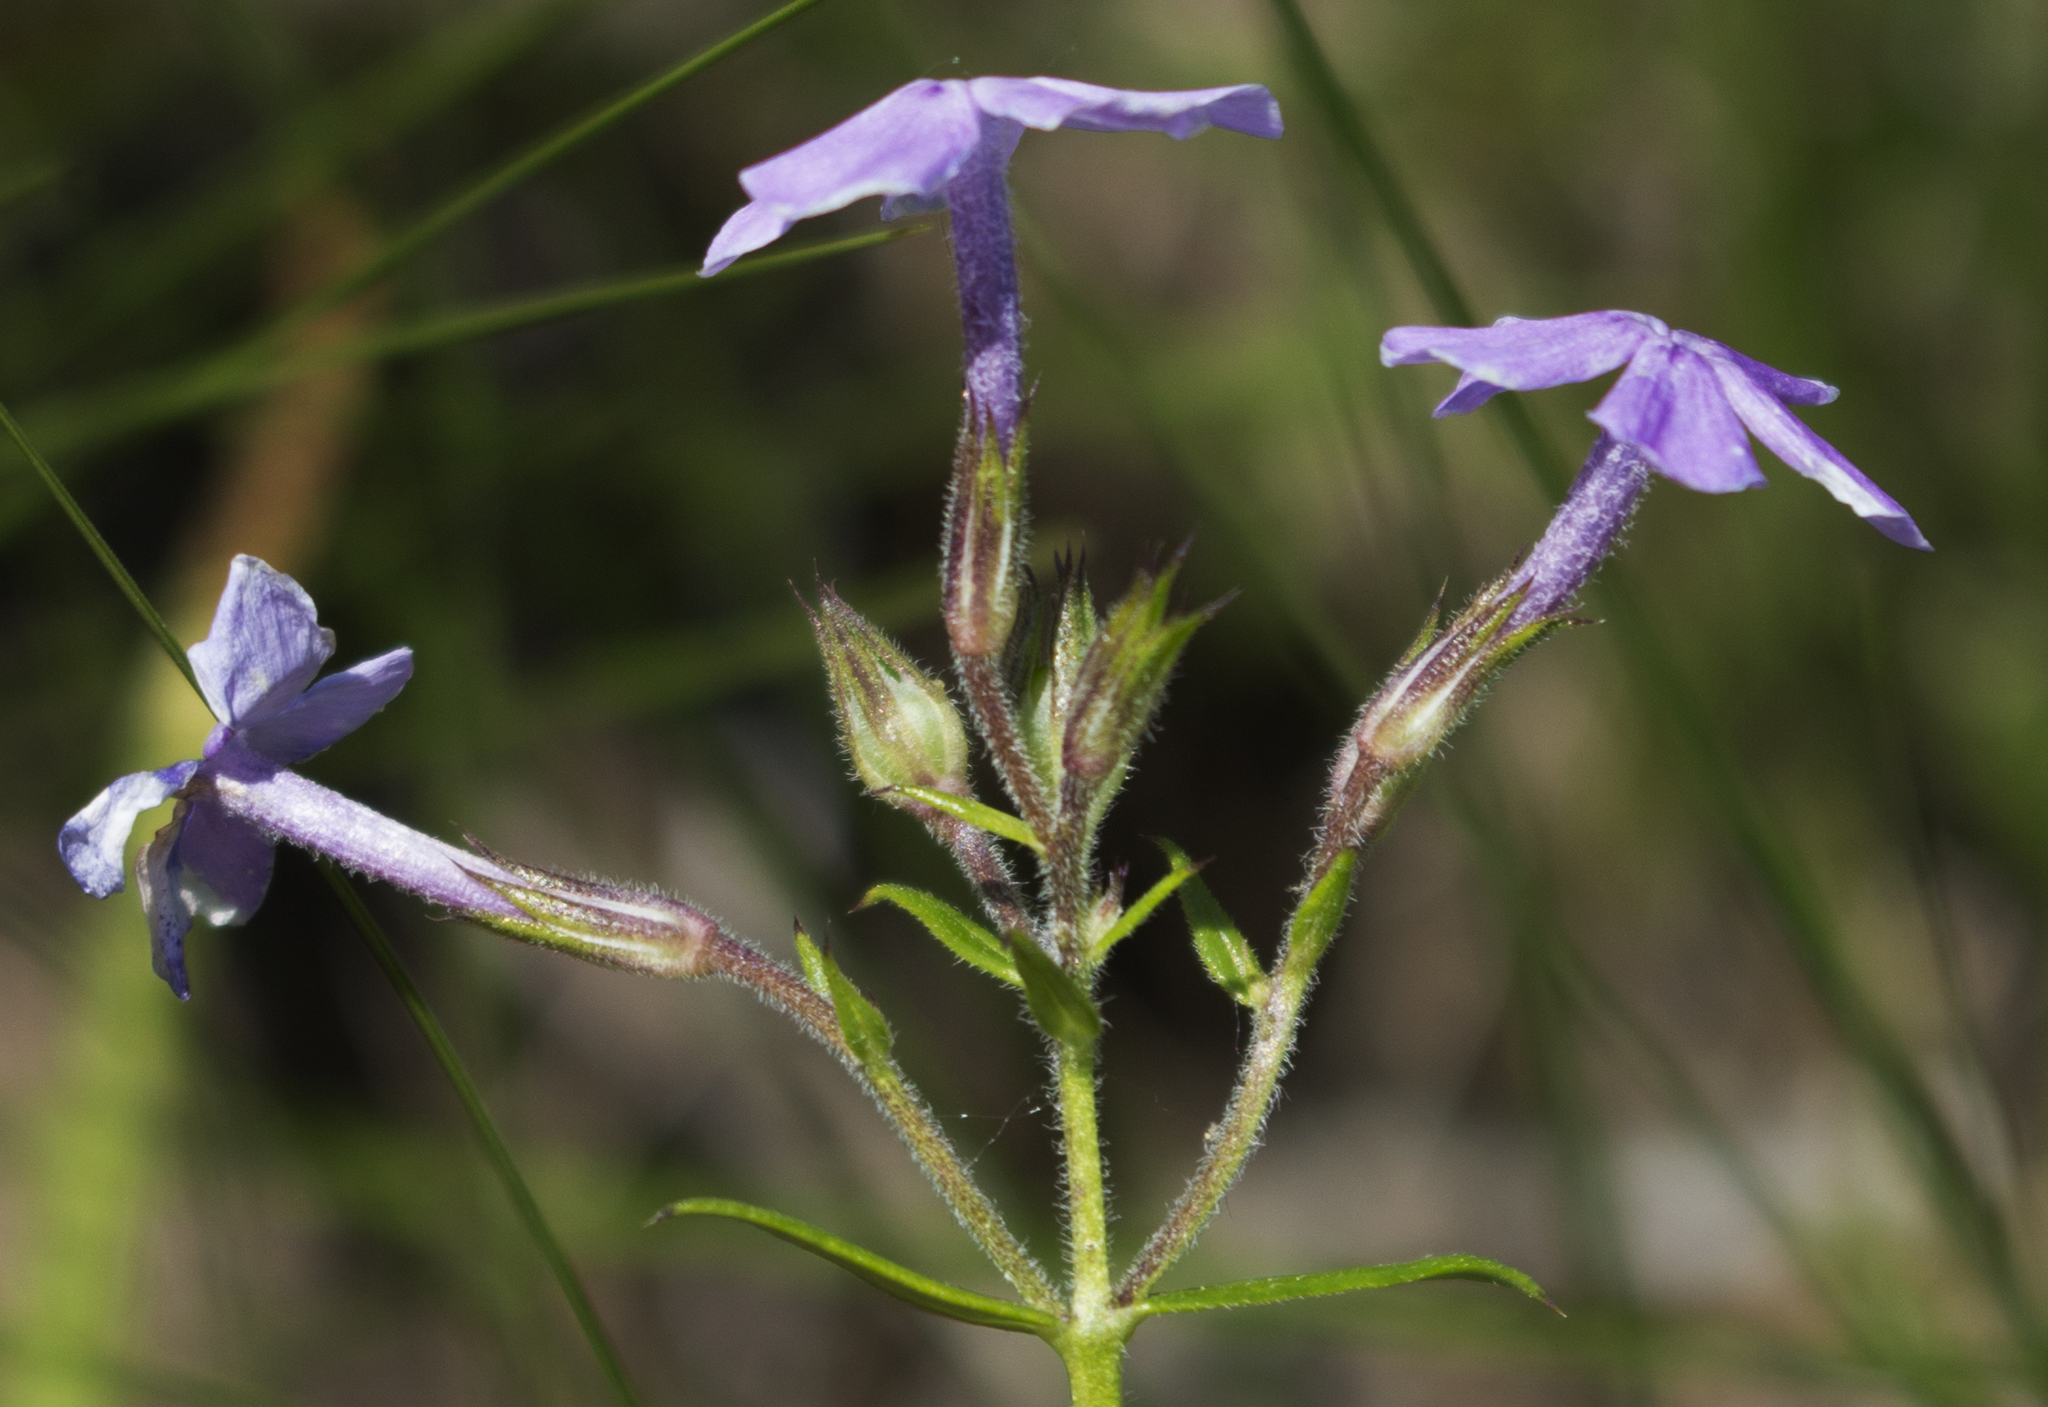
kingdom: Plantae
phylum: Tracheophyta
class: Magnoliopsida
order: Ericales
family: Polemoniaceae
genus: Phlox
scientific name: Phlox pilosa
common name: Prairie phlox
